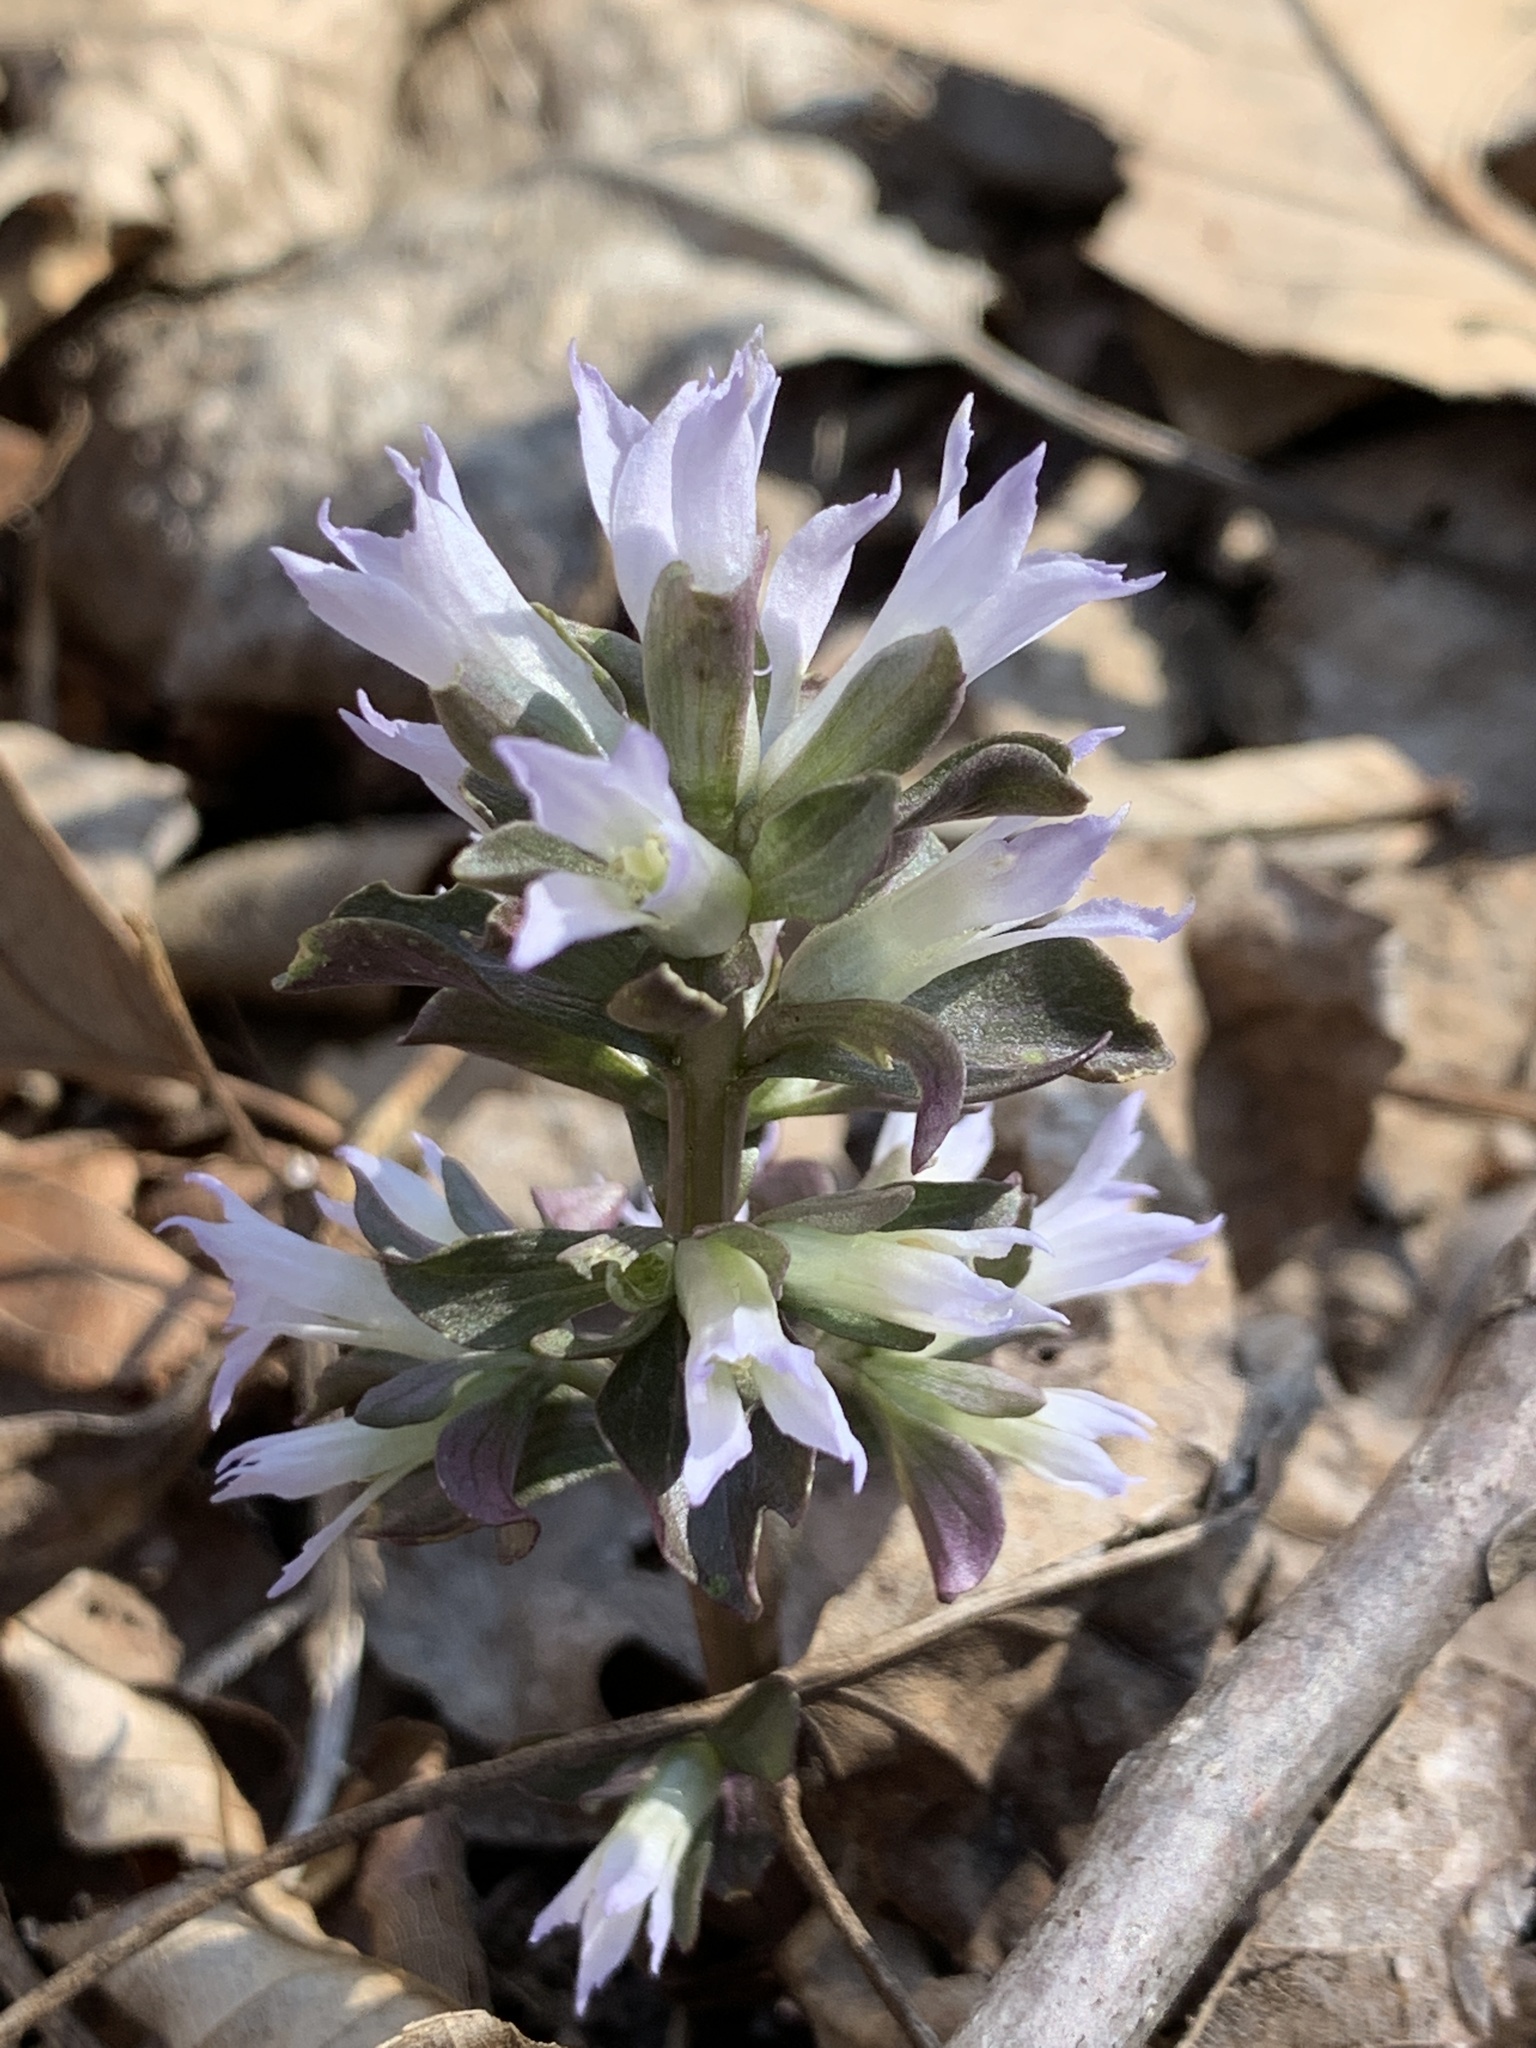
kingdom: Plantae
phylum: Tracheophyta
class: Magnoliopsida
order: Gentianales
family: Gentianaceae
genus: Obolaria
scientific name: Obolaria virginica
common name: Pennywort
